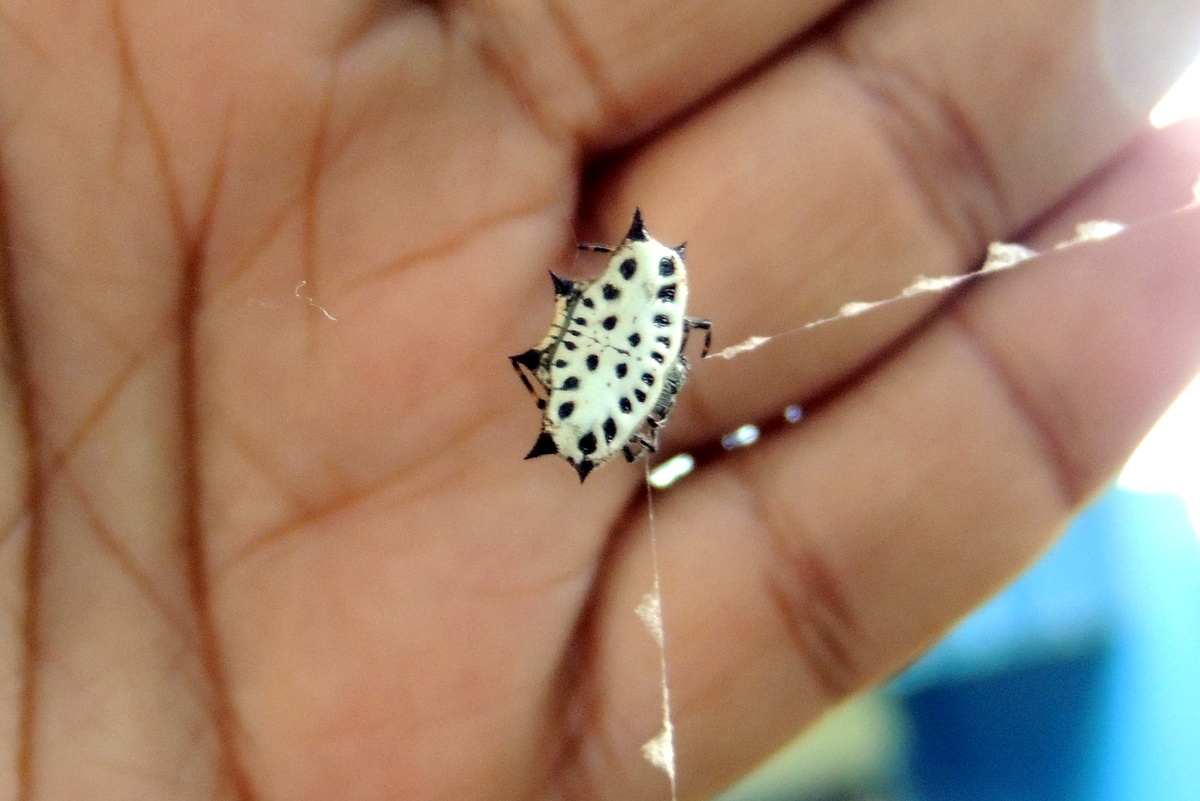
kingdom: Animalia
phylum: Arthropoda
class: Arachnida
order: Araneae
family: Araneidae
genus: Gasteracantha
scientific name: Gasteracantha cancriformis
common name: Orb weavers
